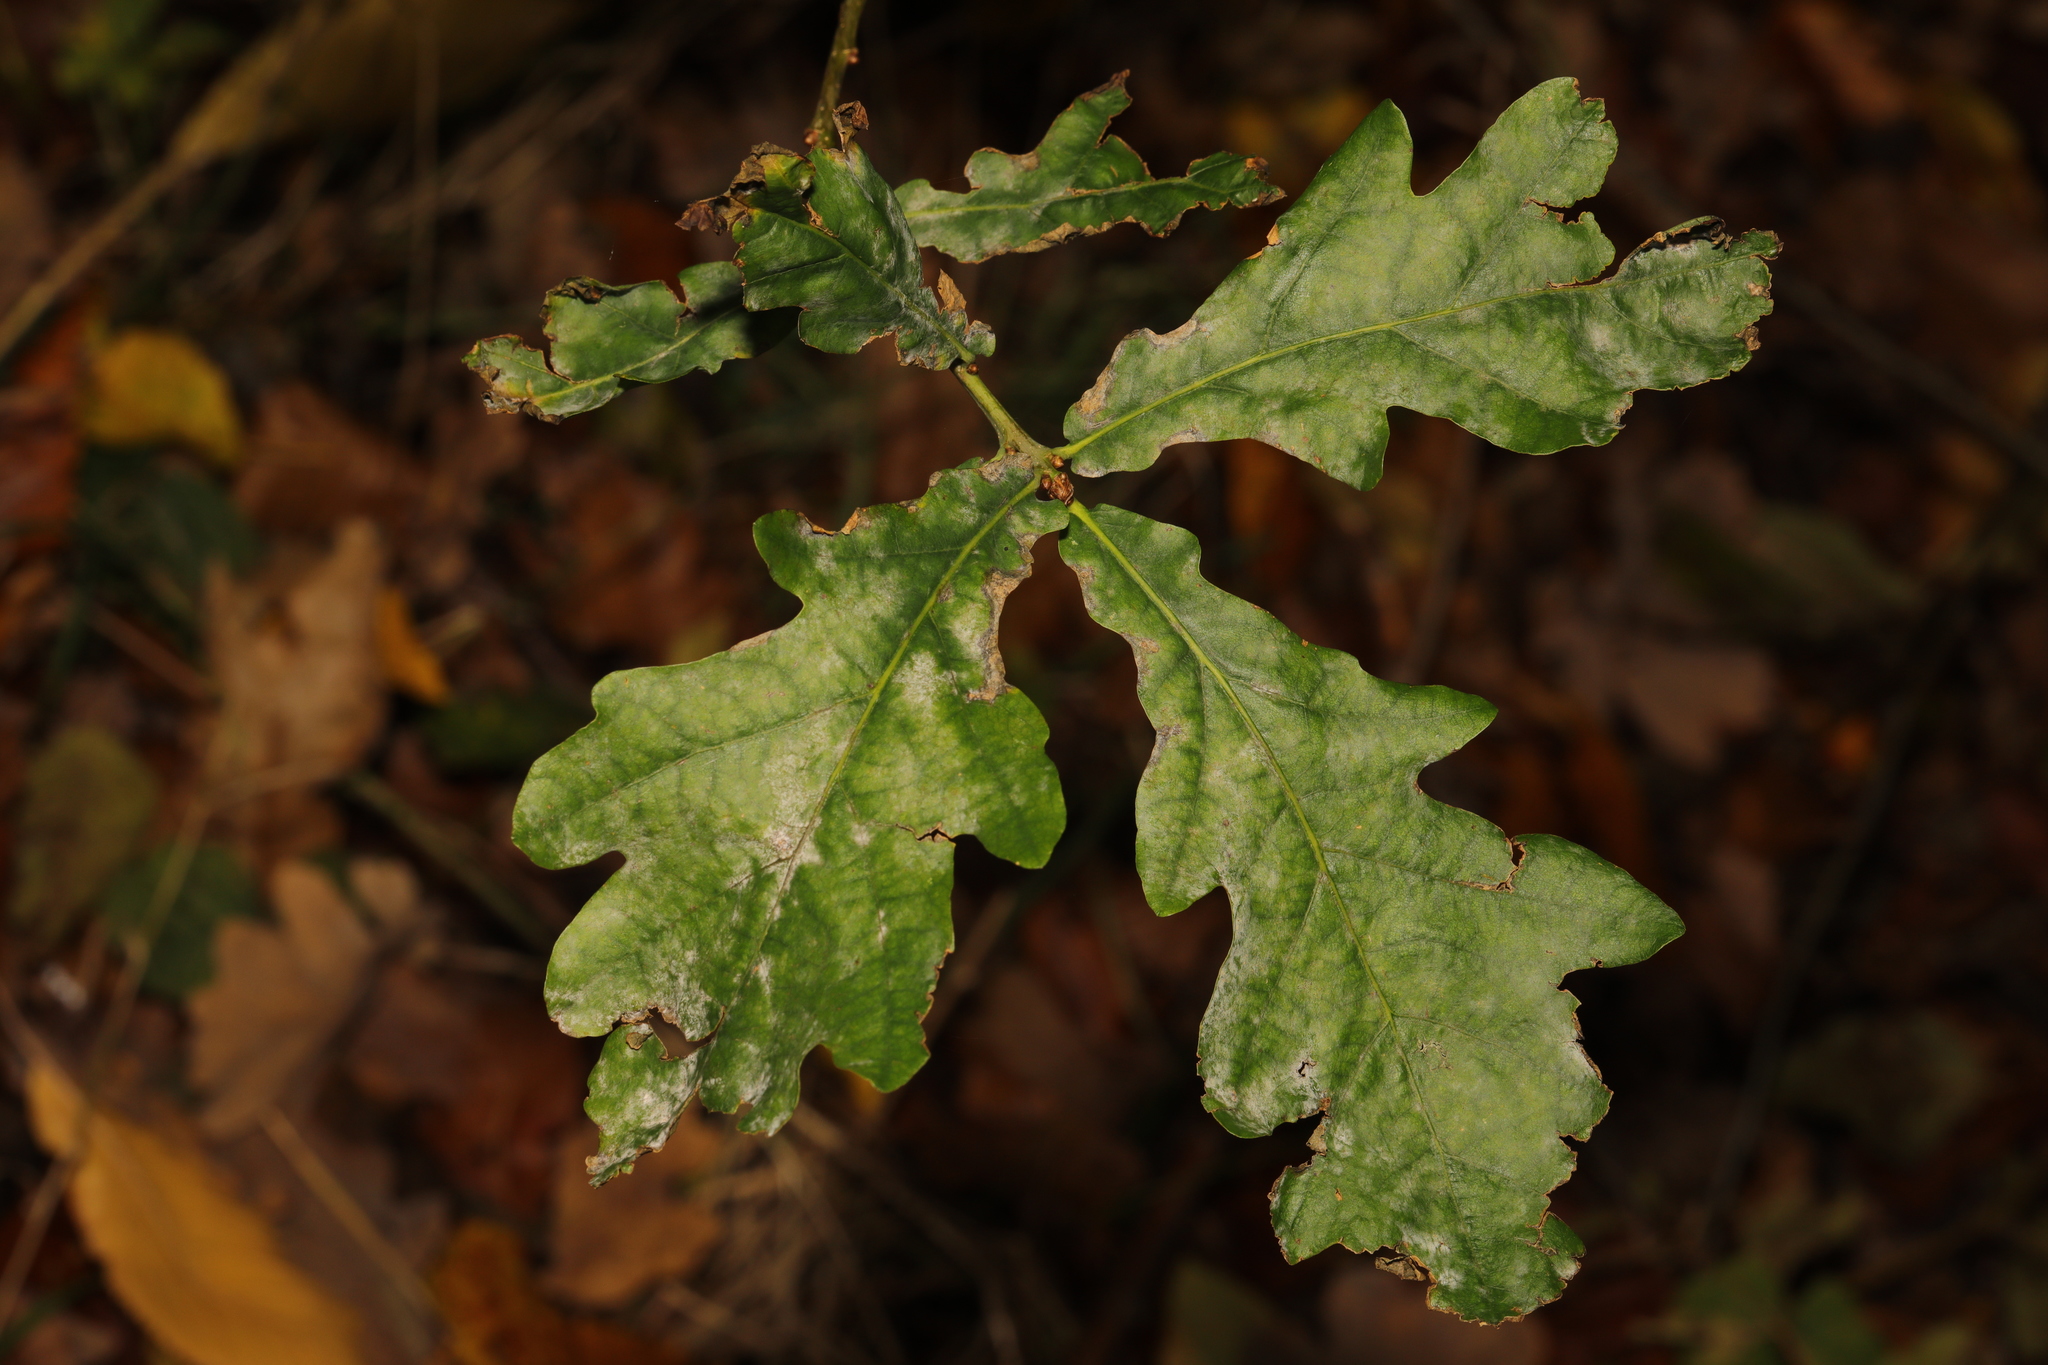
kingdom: Plantae
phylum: Tracheophyta
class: Magnoliopsida
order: Fagales
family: Fagaceae
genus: Quercus
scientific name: Quercus robur
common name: Pedunculate oak
